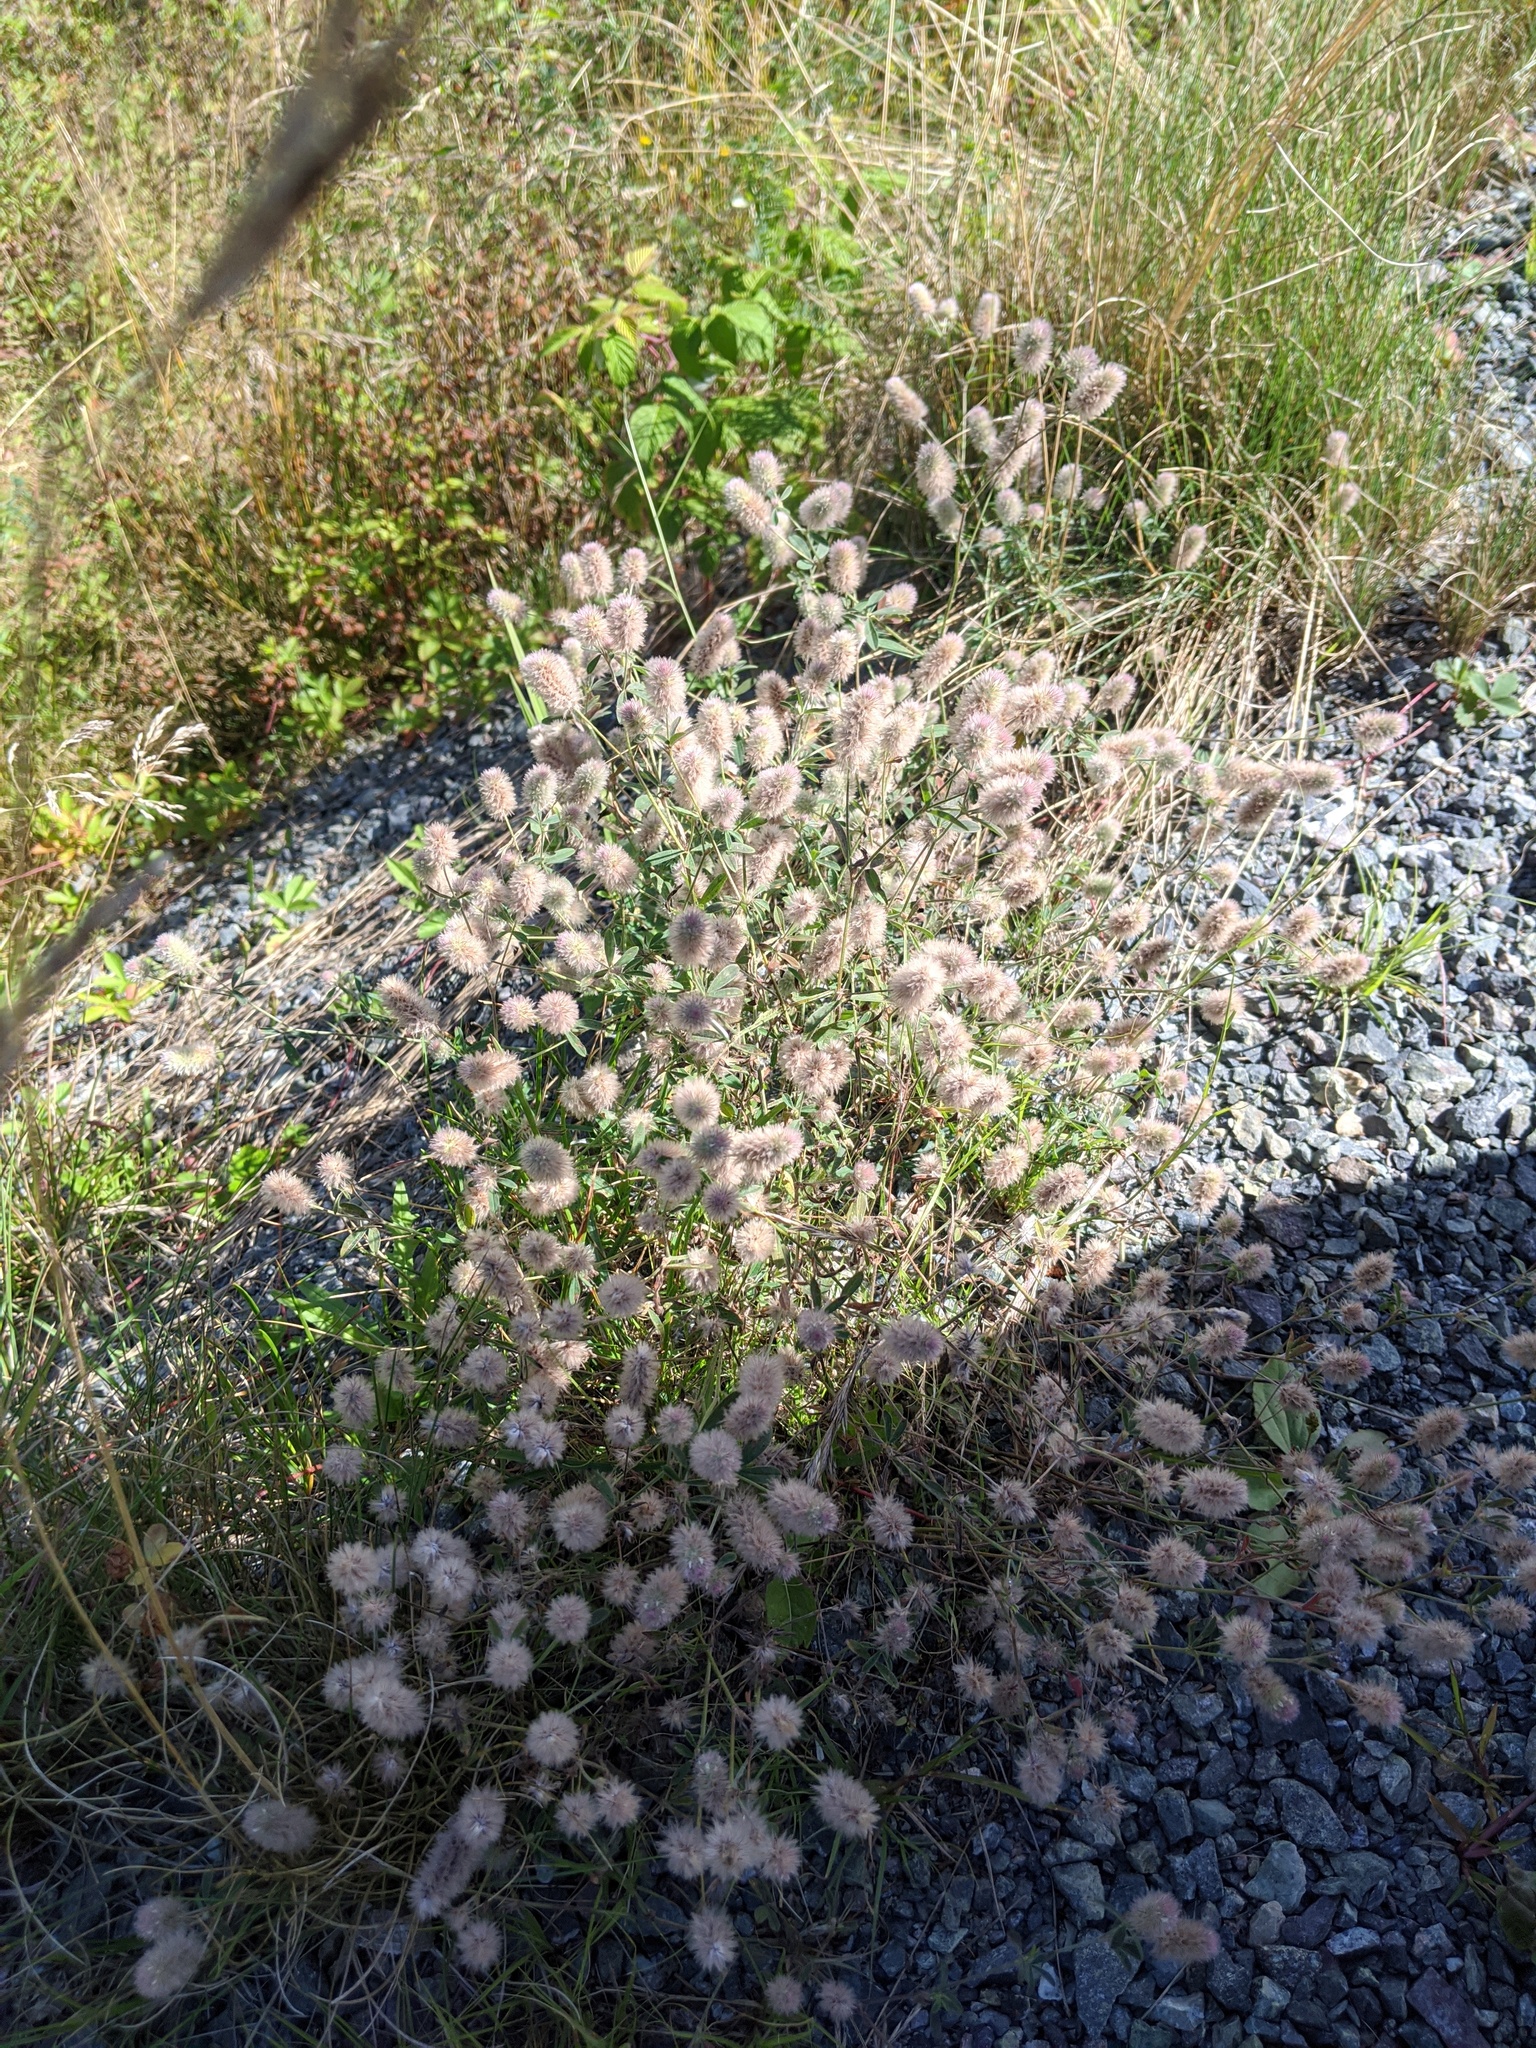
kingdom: Plantae
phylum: Tracheophyta
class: Magnoliopsida
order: Fabales
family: Fabaceae
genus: Trifolium
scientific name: Trifolium arvense
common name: Hare's-foot clover
